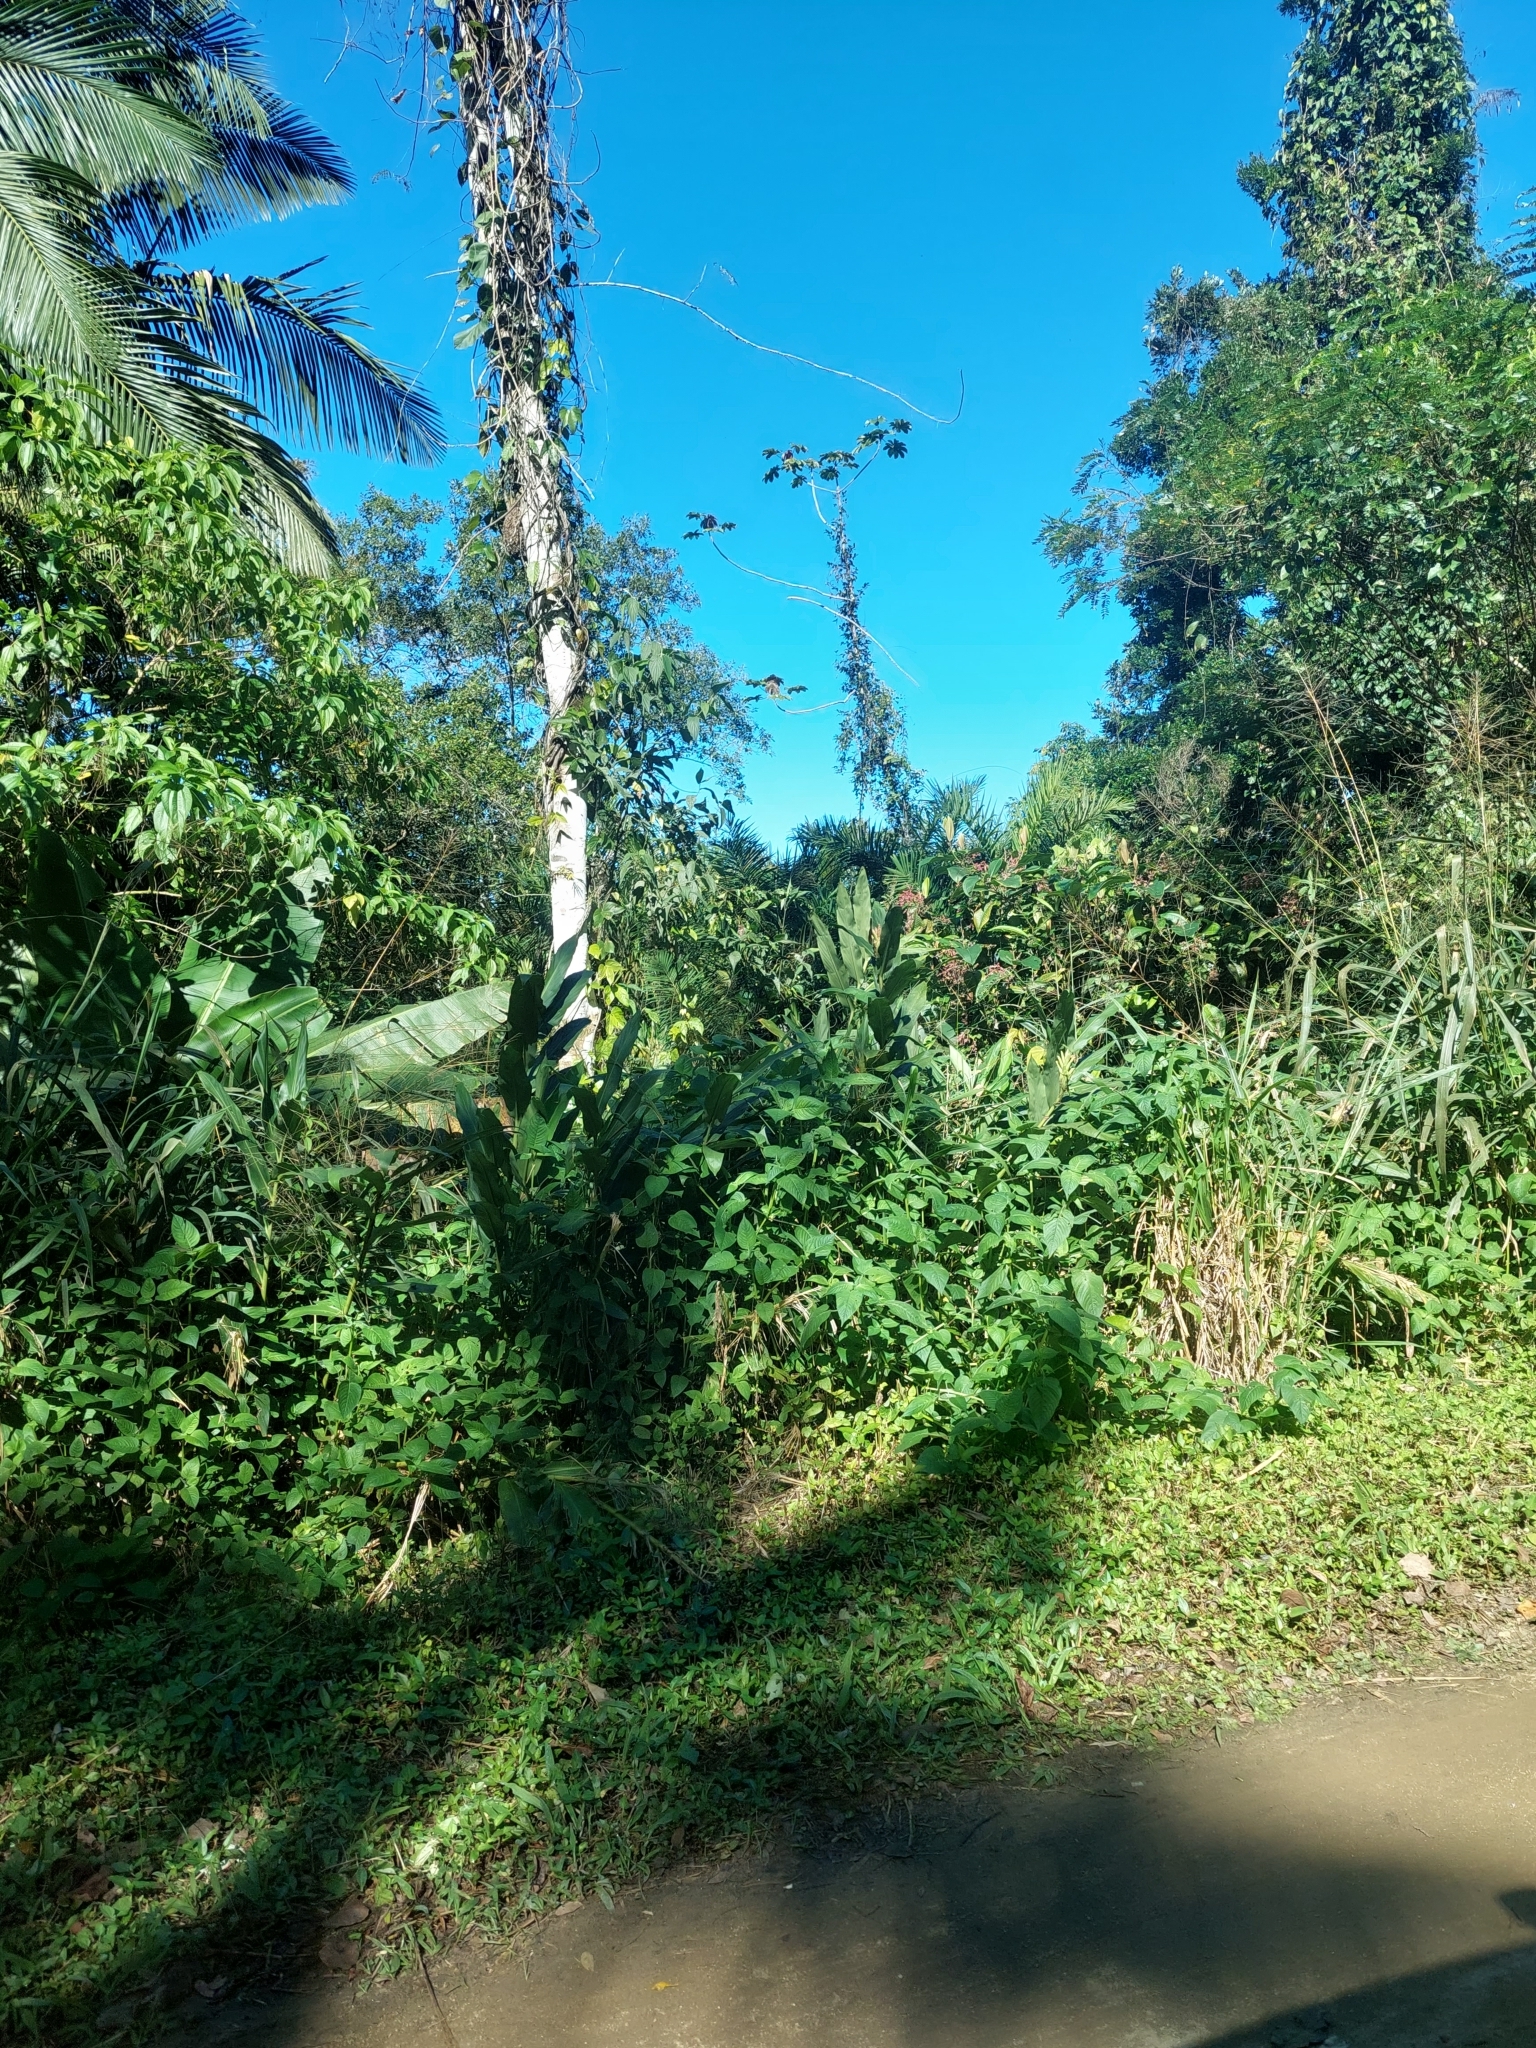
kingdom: Plantae
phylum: Tracheophyta
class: Liliopsida
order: Zingiberales
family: Zingiberaceae
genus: Hedychium
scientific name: Hedychium coronarium
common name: White garland-lily
